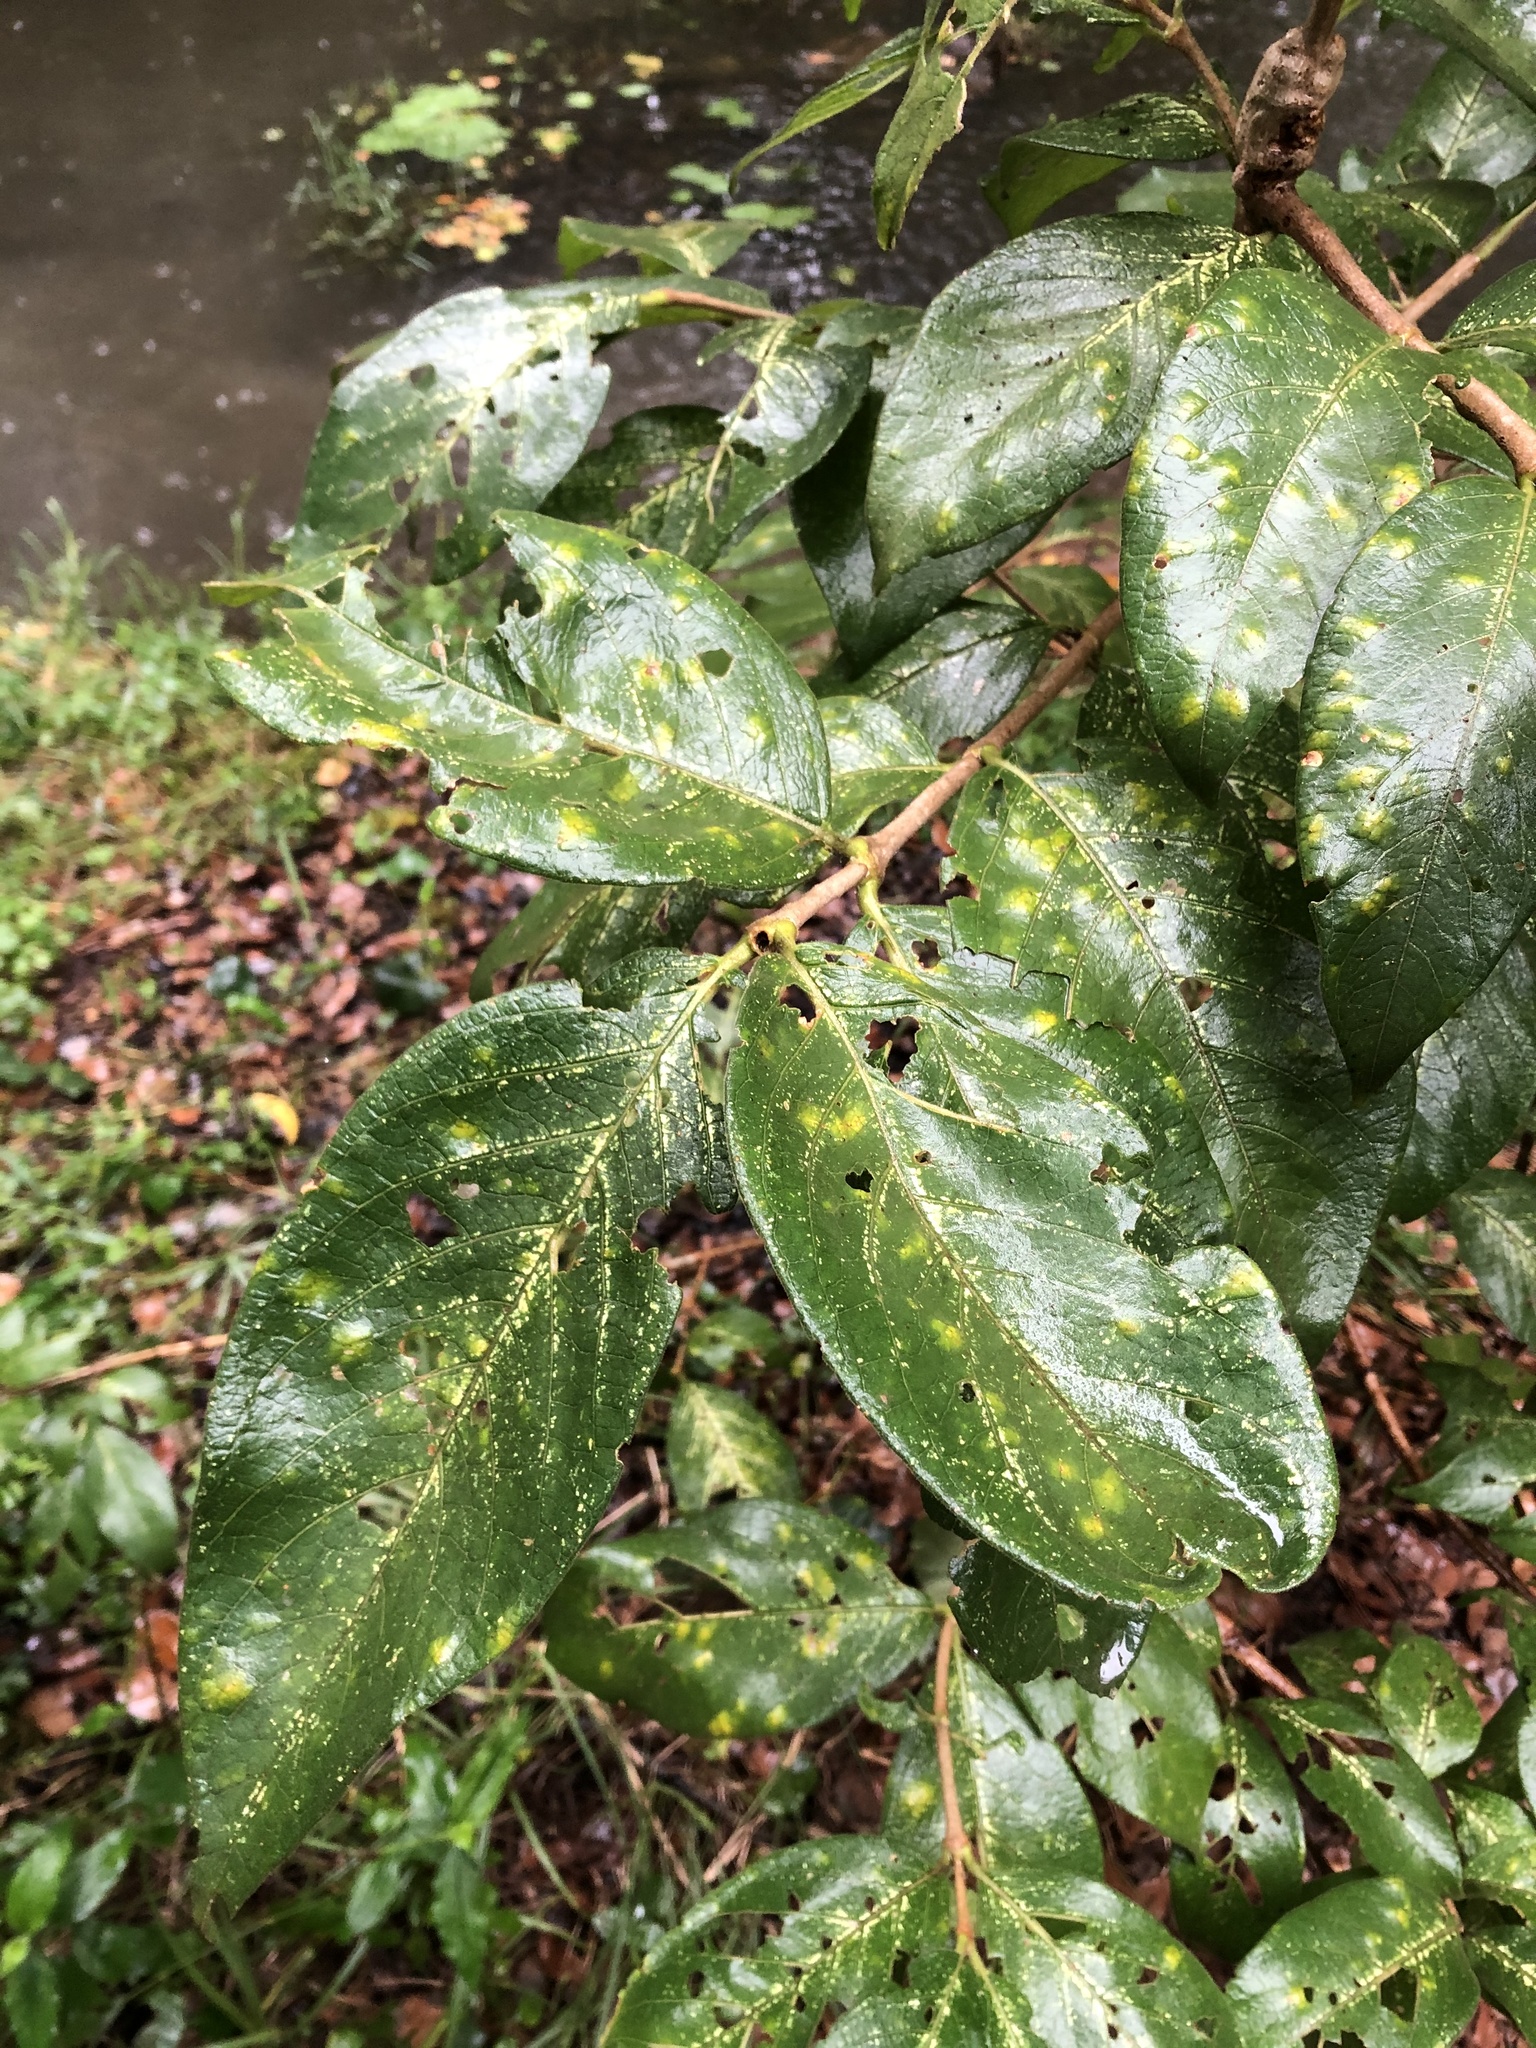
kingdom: Plantae
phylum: Tracheophyta
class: Magnoliopsida
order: Gentianales
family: Rubiaceae
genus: Vangueria
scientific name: Vangueria infausta
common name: Medlar
